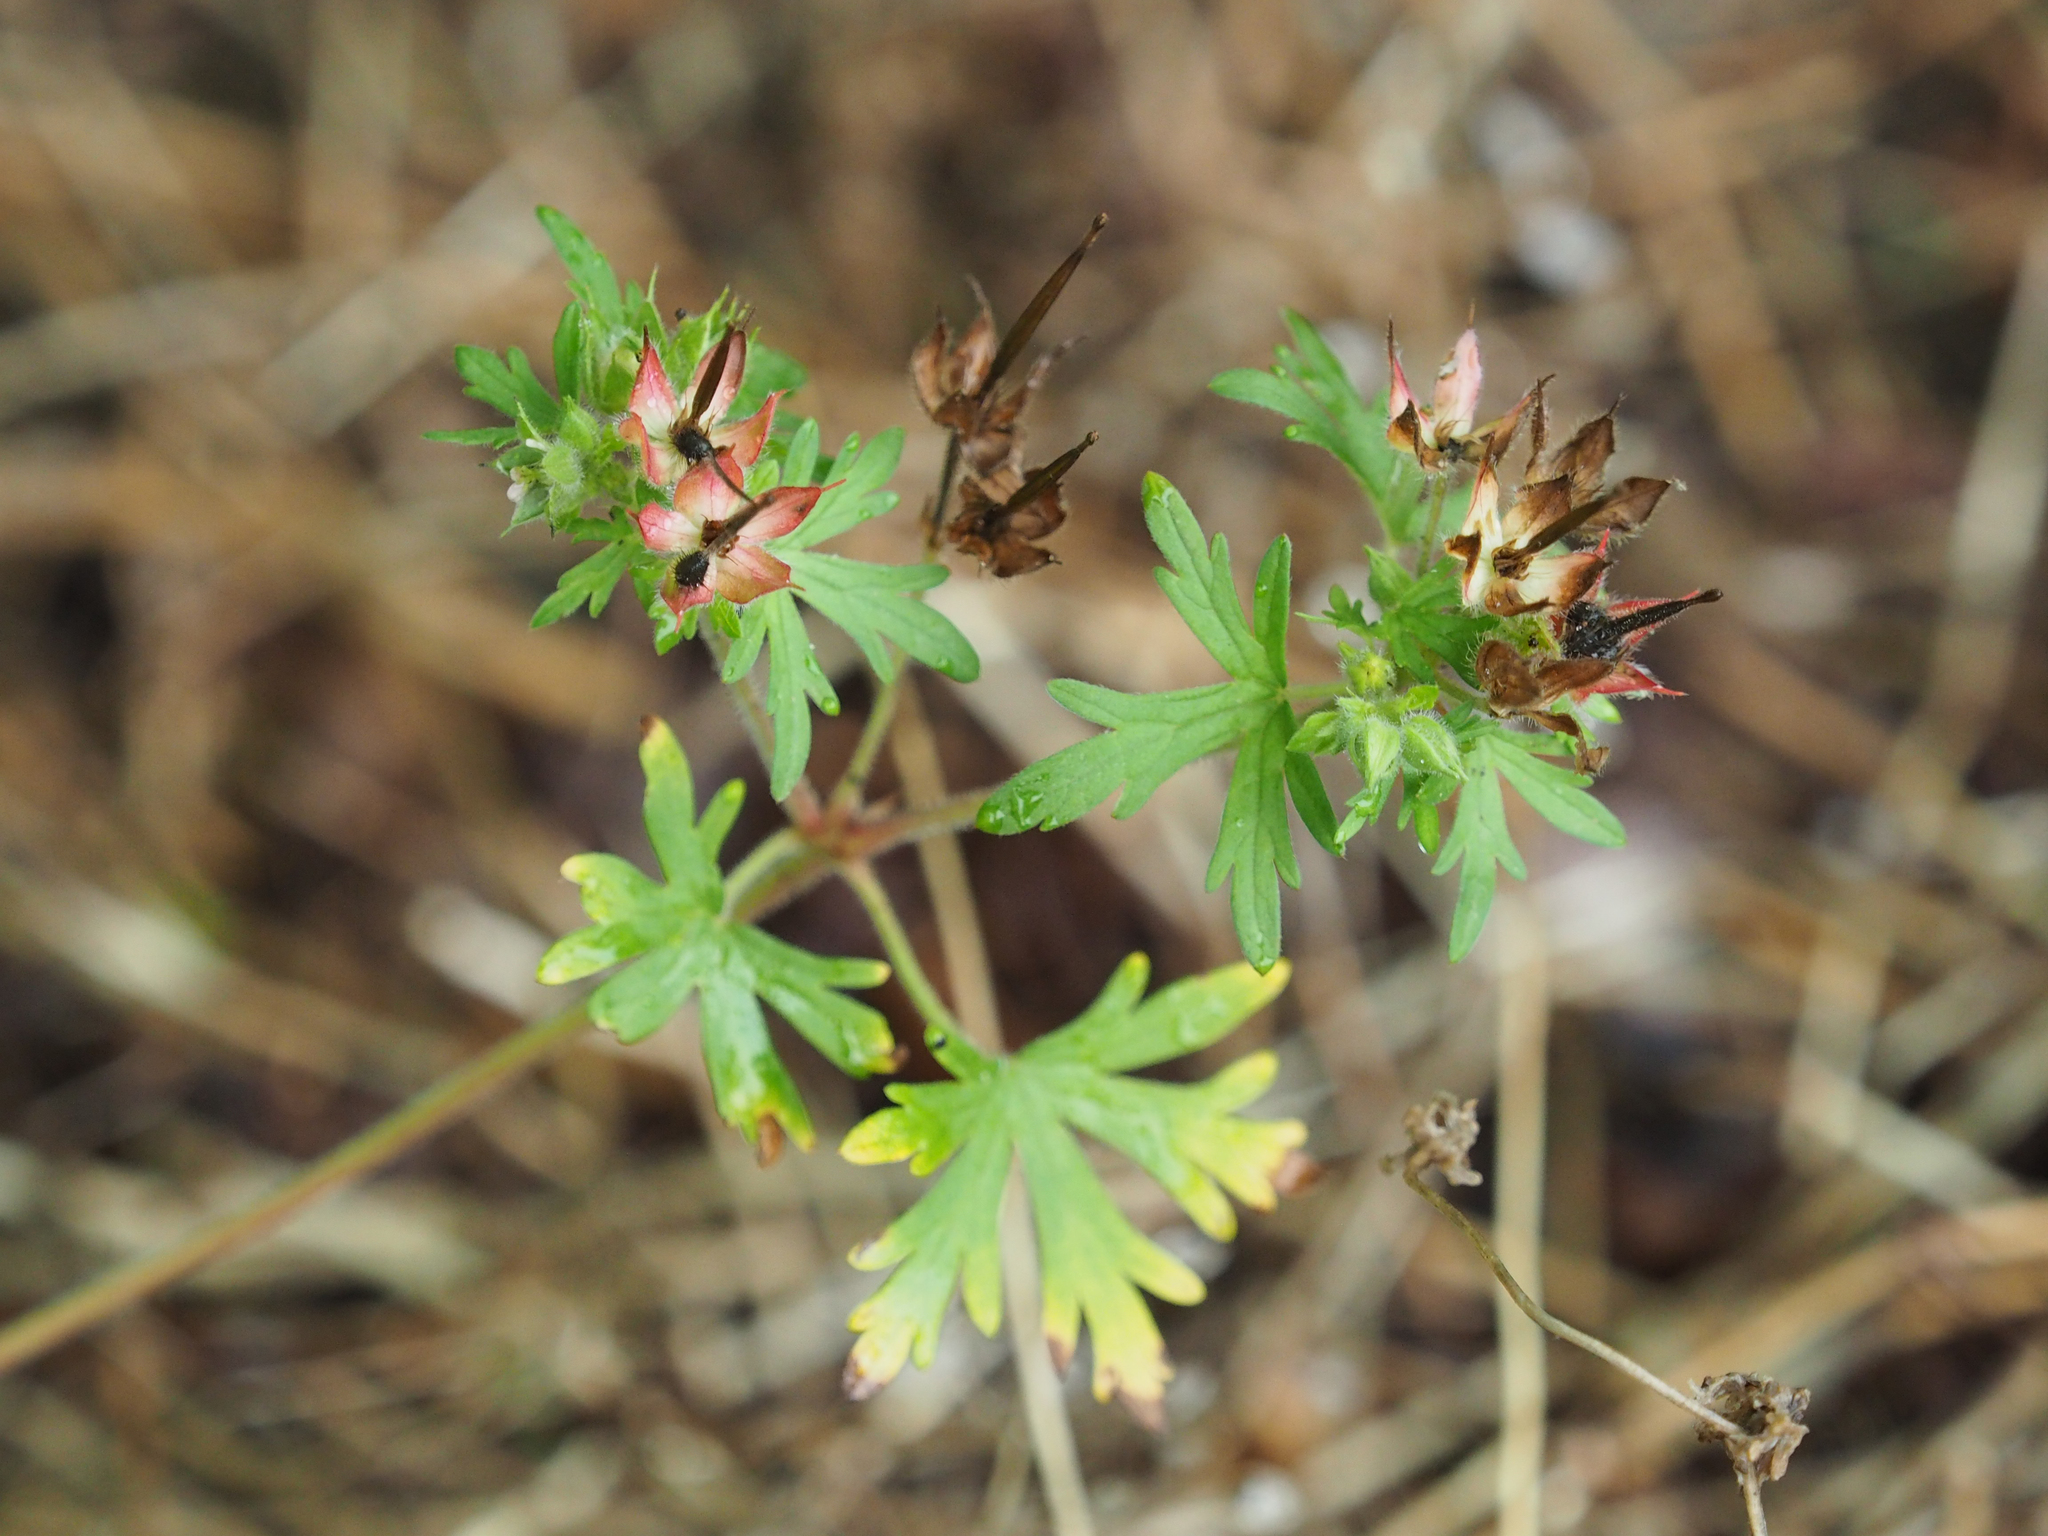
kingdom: Plantae
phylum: Tracheophyta
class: Magnoliopsida
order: Geraniales
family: Geraniaceae
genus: Geranium
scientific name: Geranium carolinianum
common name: Carolina crane's-bill
